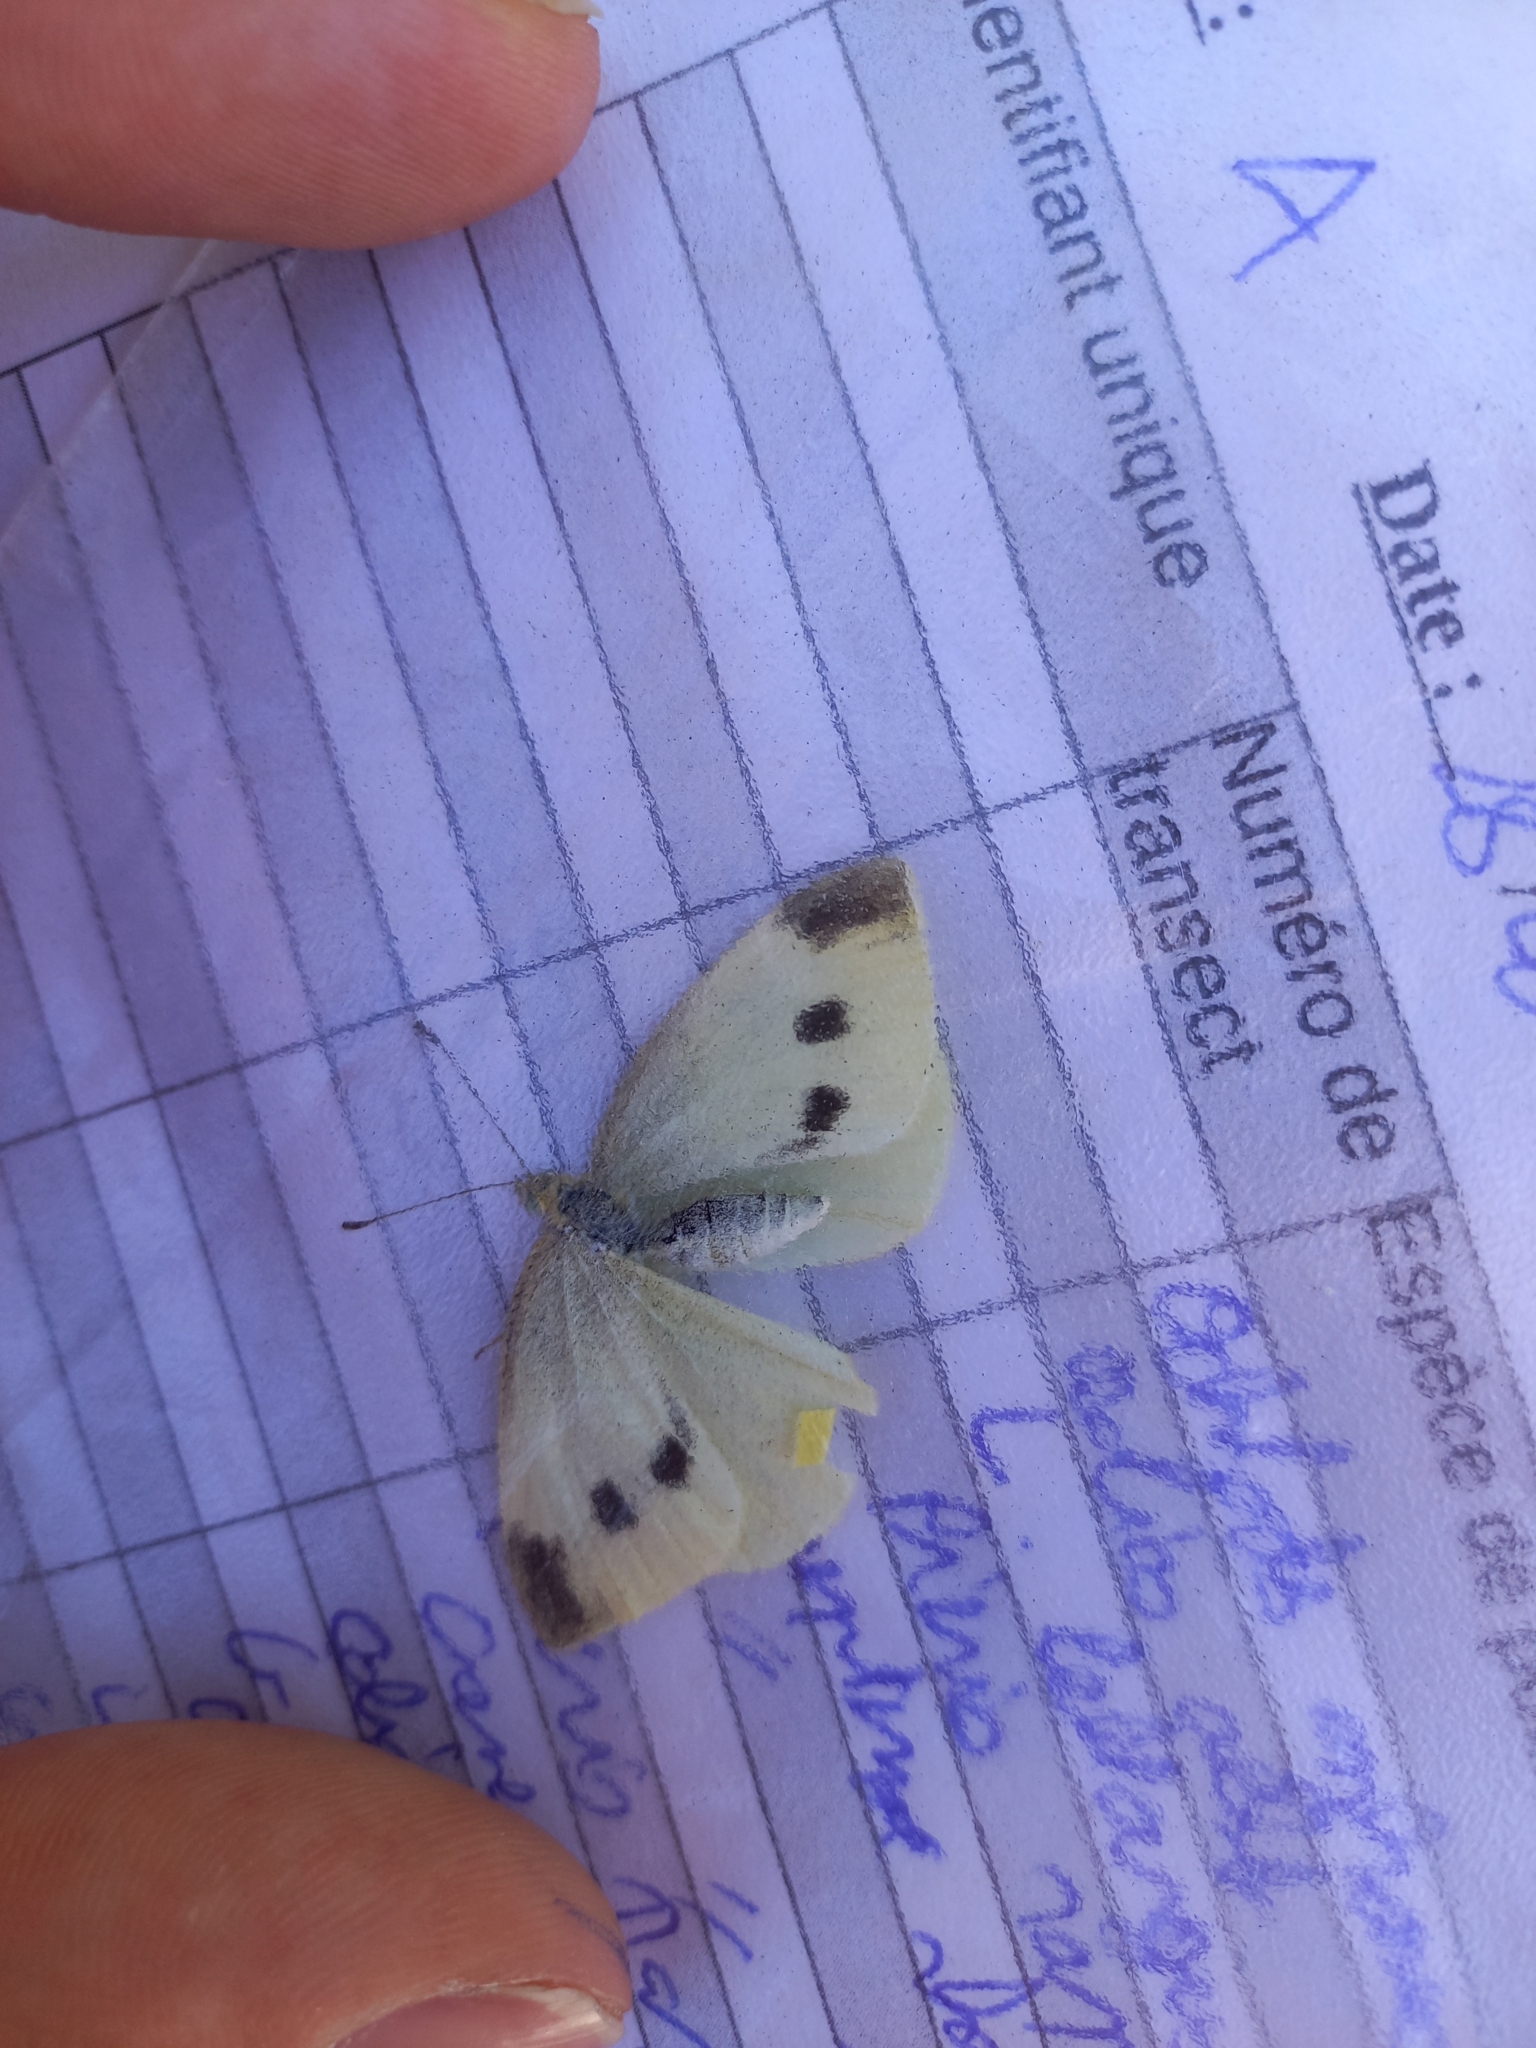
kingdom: Animalia
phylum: Arthropoda
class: Insecta
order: Lepidoptera
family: Pieridae
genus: Pieris
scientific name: Pieris rapae
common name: Small white
